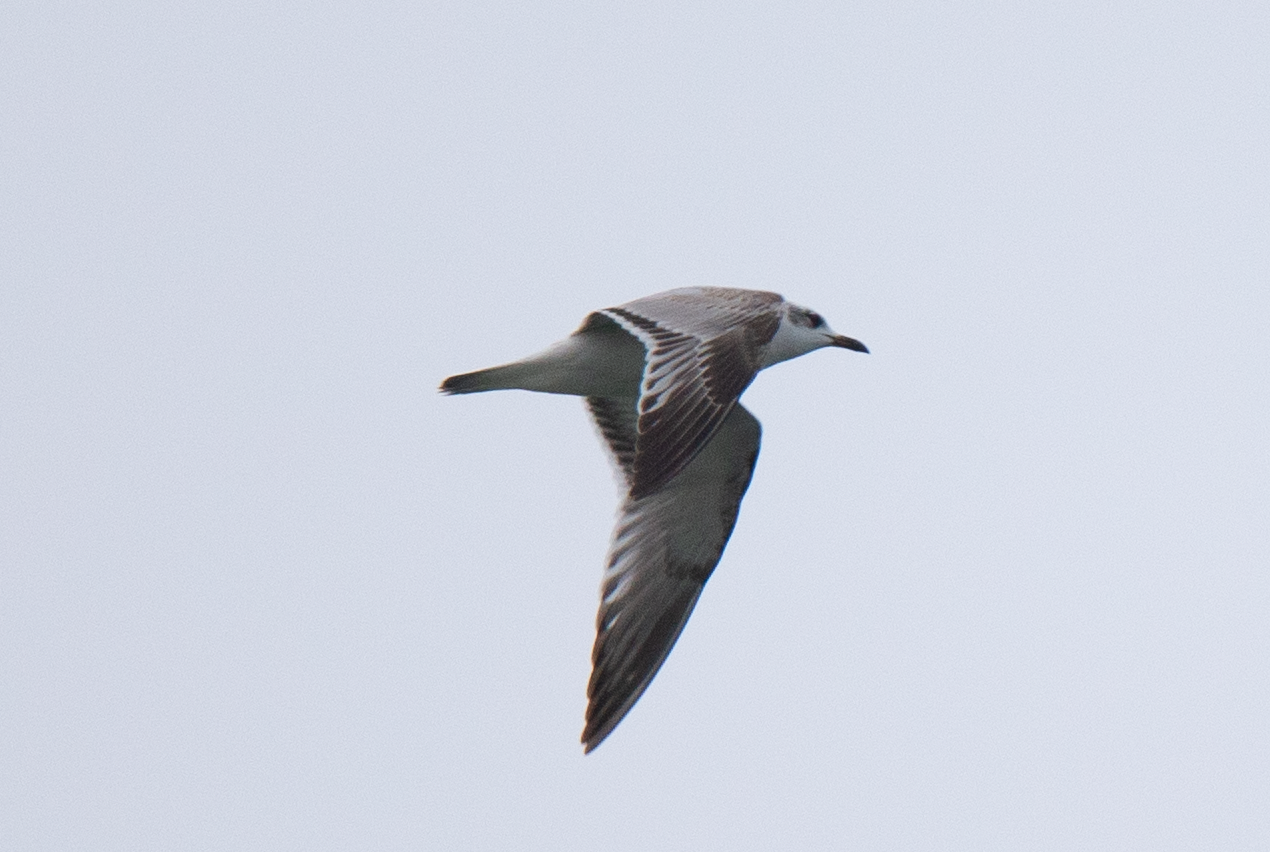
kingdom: Animalia
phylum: Chordata
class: Aves
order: Charadriiformes
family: Laridae
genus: Chroicocephalus
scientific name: Chroicocephalus ridibundus
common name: Black-headed gull
